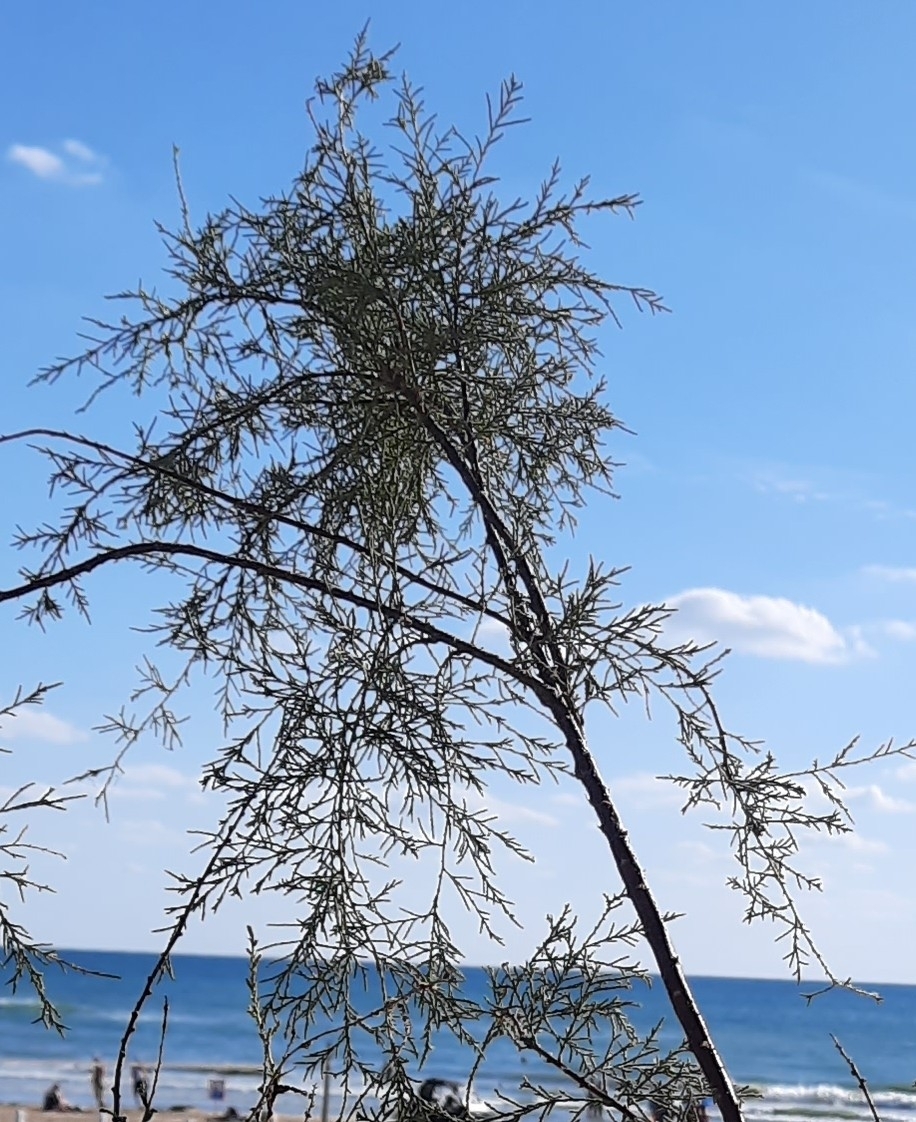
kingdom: Plantae
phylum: Tracheophyta
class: Magnoliopsida
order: Caryophyllales
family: Tamaricaceae
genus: Tamarix
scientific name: Tamarix ramosissima
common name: Pink tamarisk
